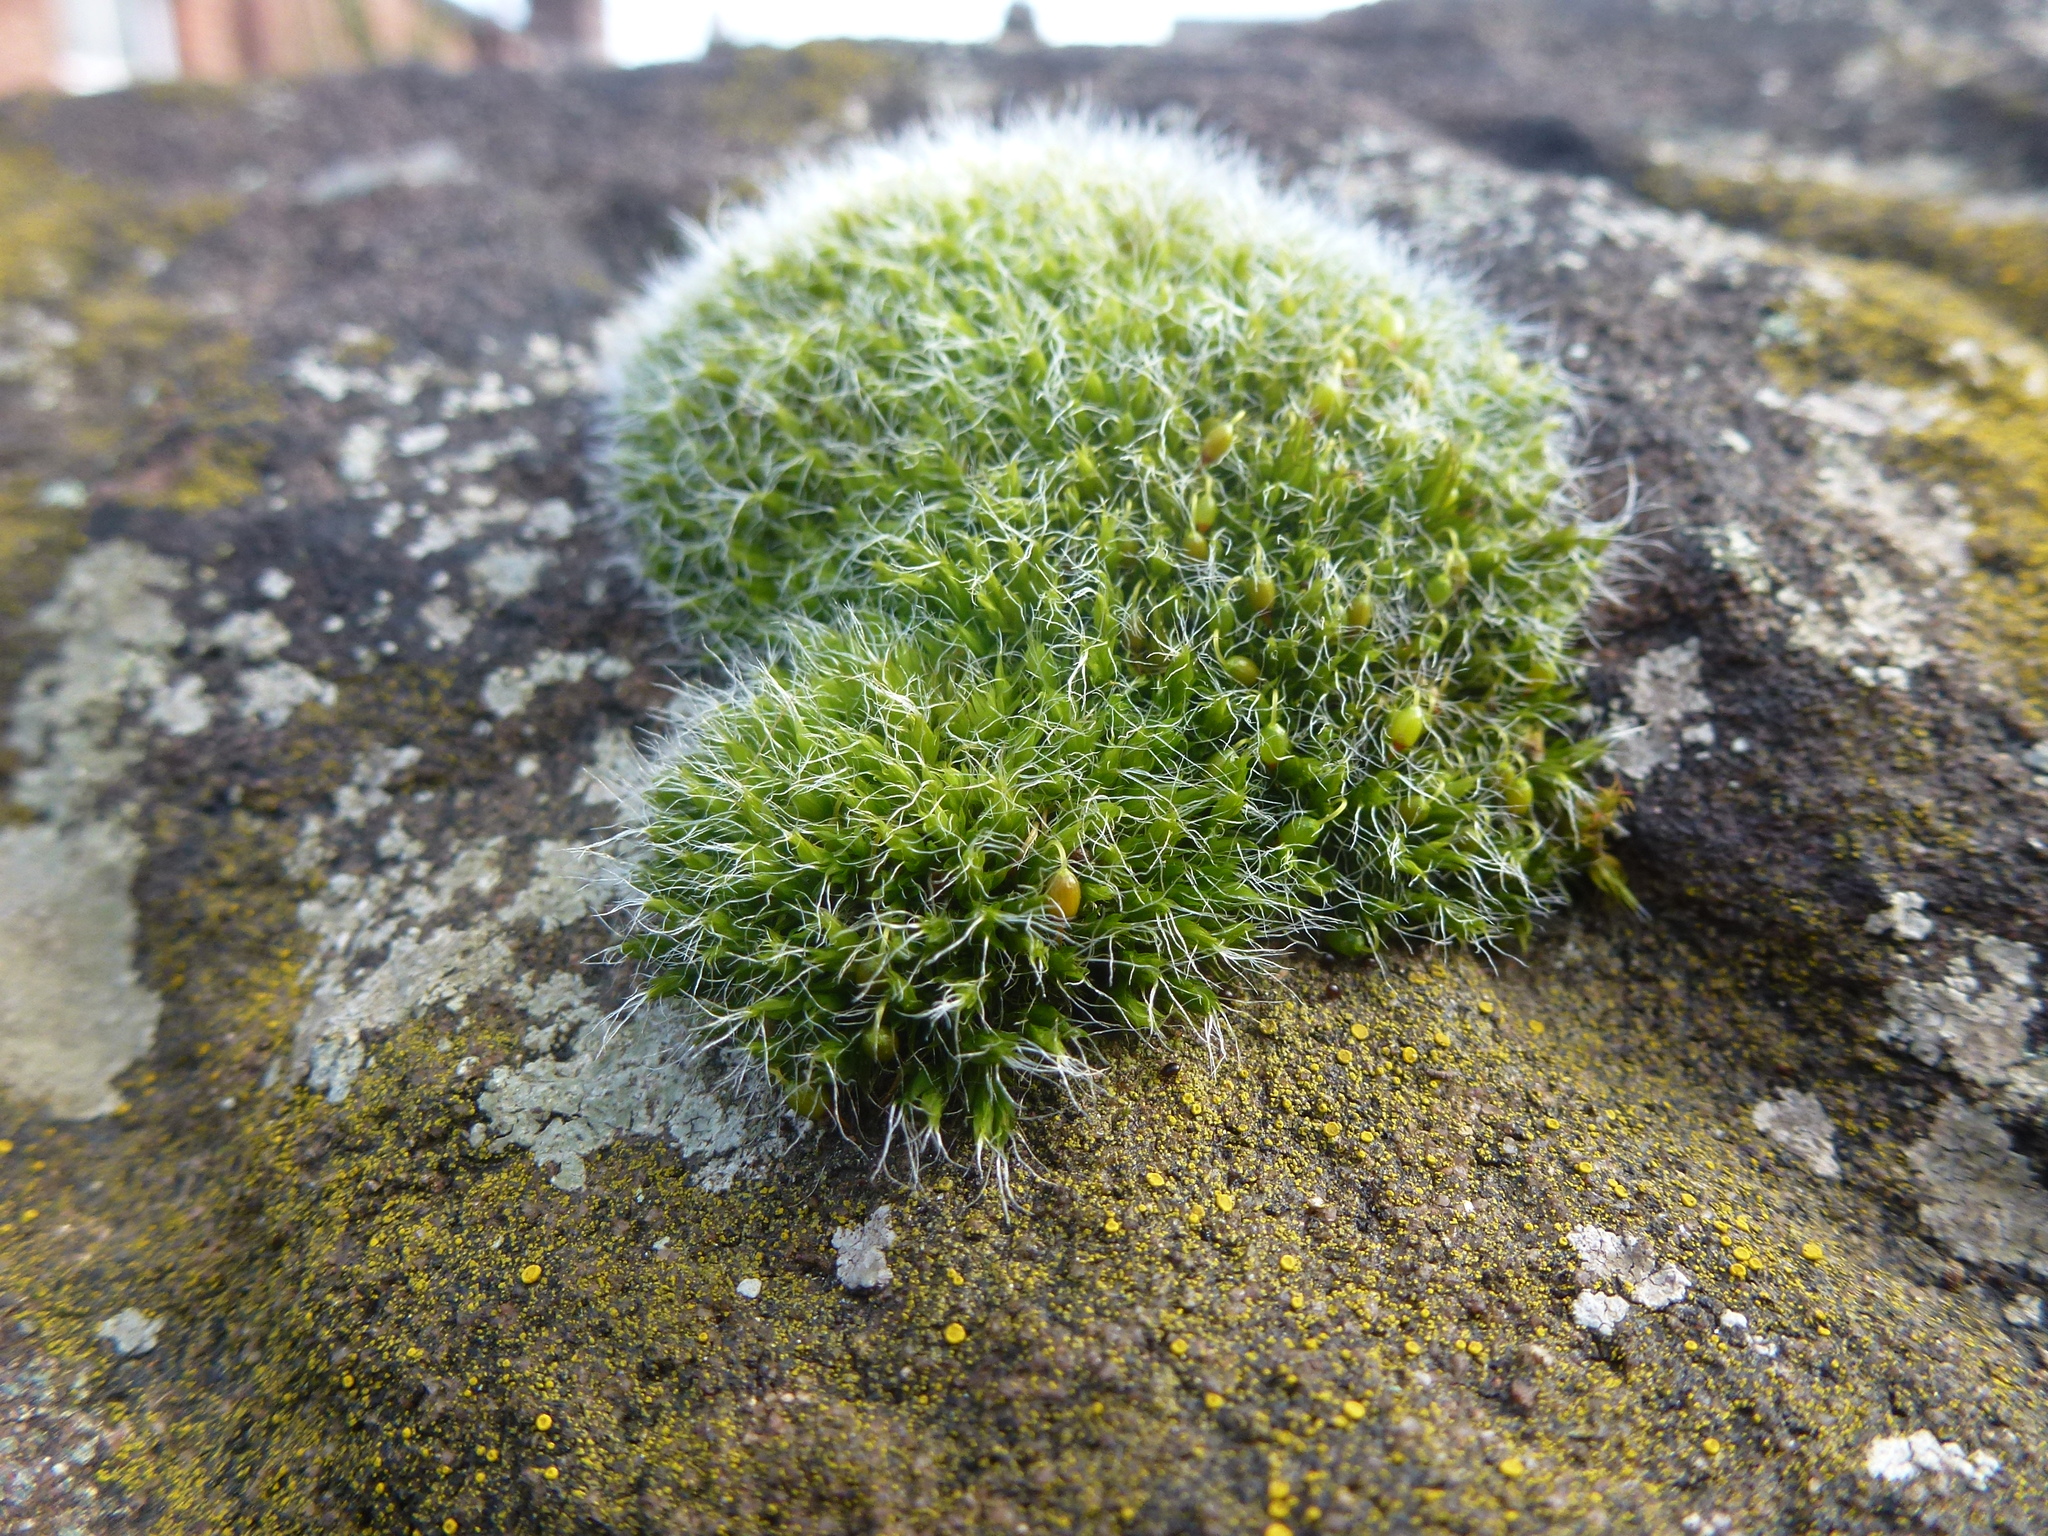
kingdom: Plantae
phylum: Bryophyta
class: Bryopsida
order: Grimmiales
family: Grimmiaceae
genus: Grimmia
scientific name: Grimmia pulvinata
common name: Grey-cushioned grimmia
